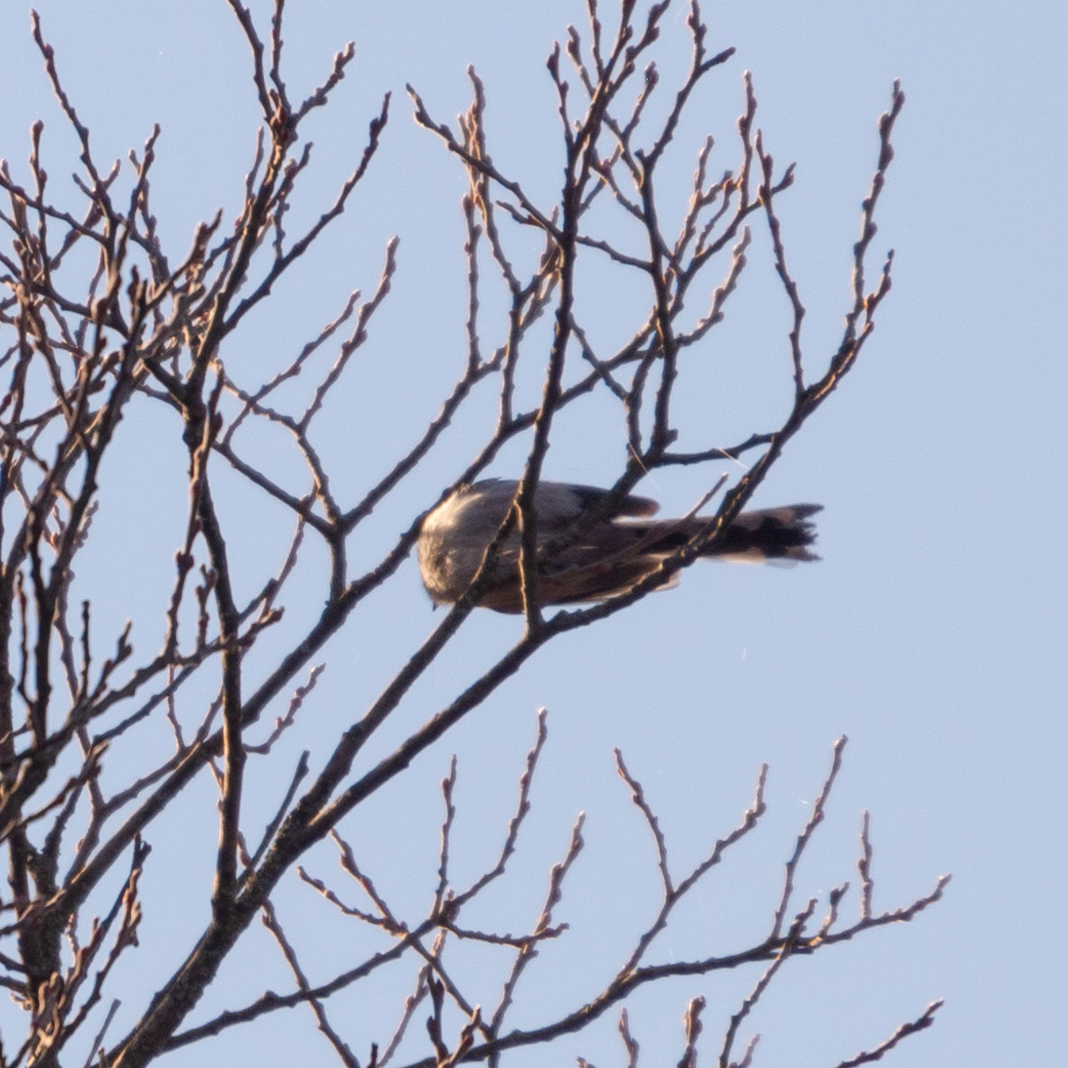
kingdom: Animalia
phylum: Chordata
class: Aves
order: Passeriformes
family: Aegithalidae
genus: Aegithalos
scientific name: Aegithalos caudatus
